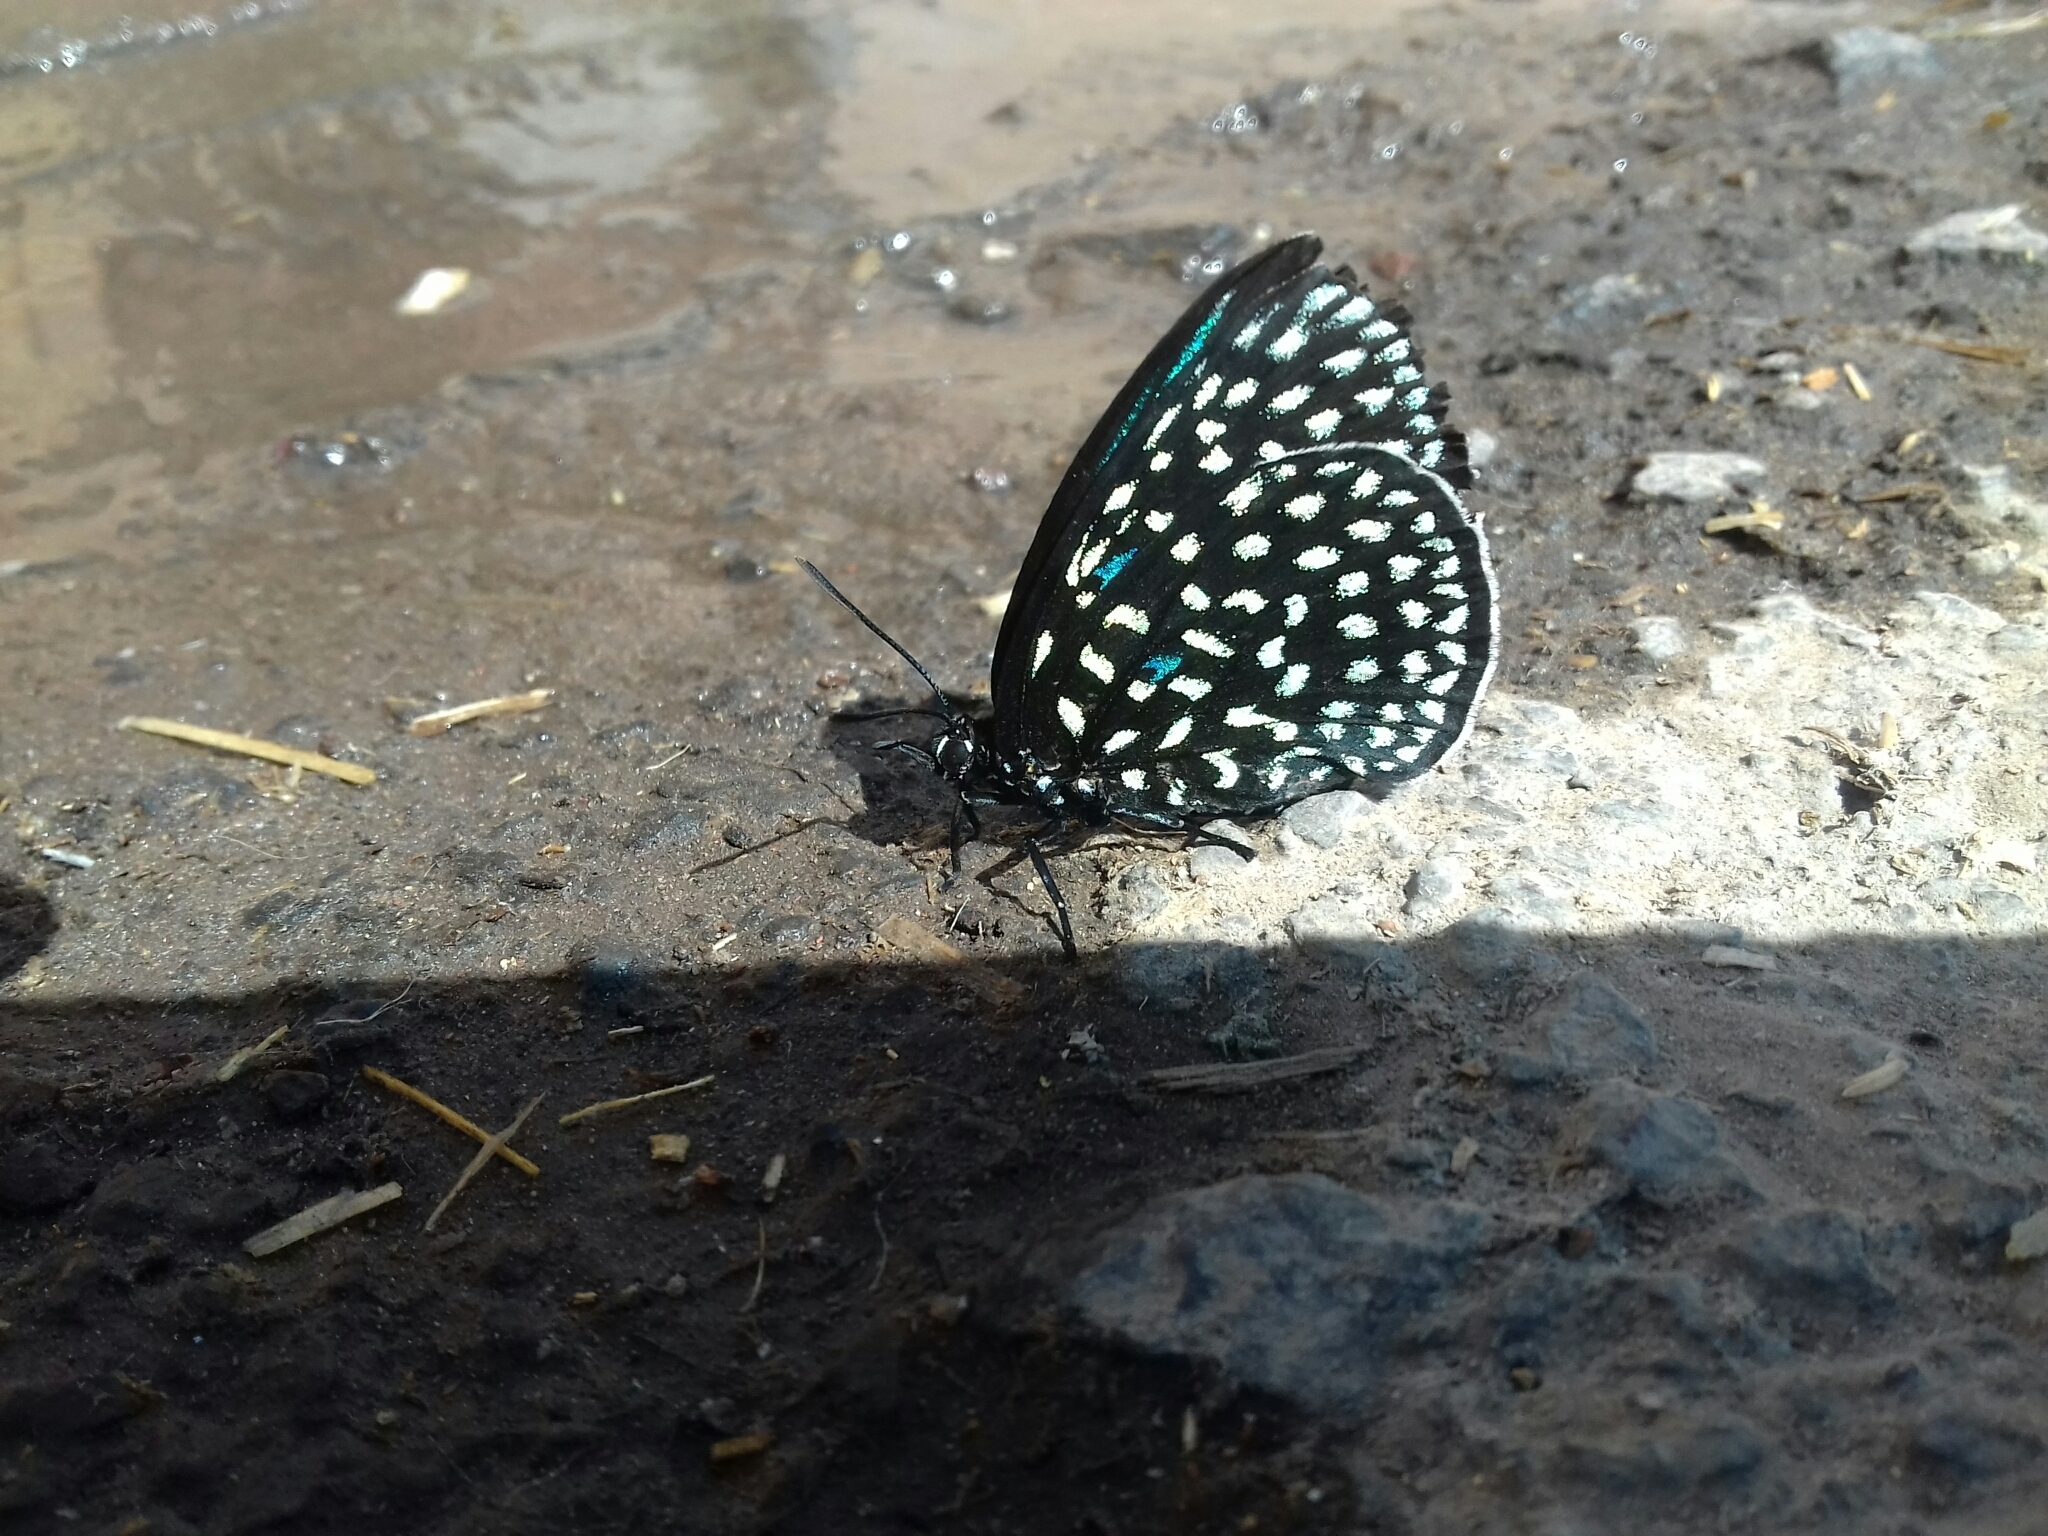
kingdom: Animalia
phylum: Arthropoda
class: Insecta
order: Lepidoptera
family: Lycaenidae
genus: Eumaeus
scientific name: Eumaeus childrenae
